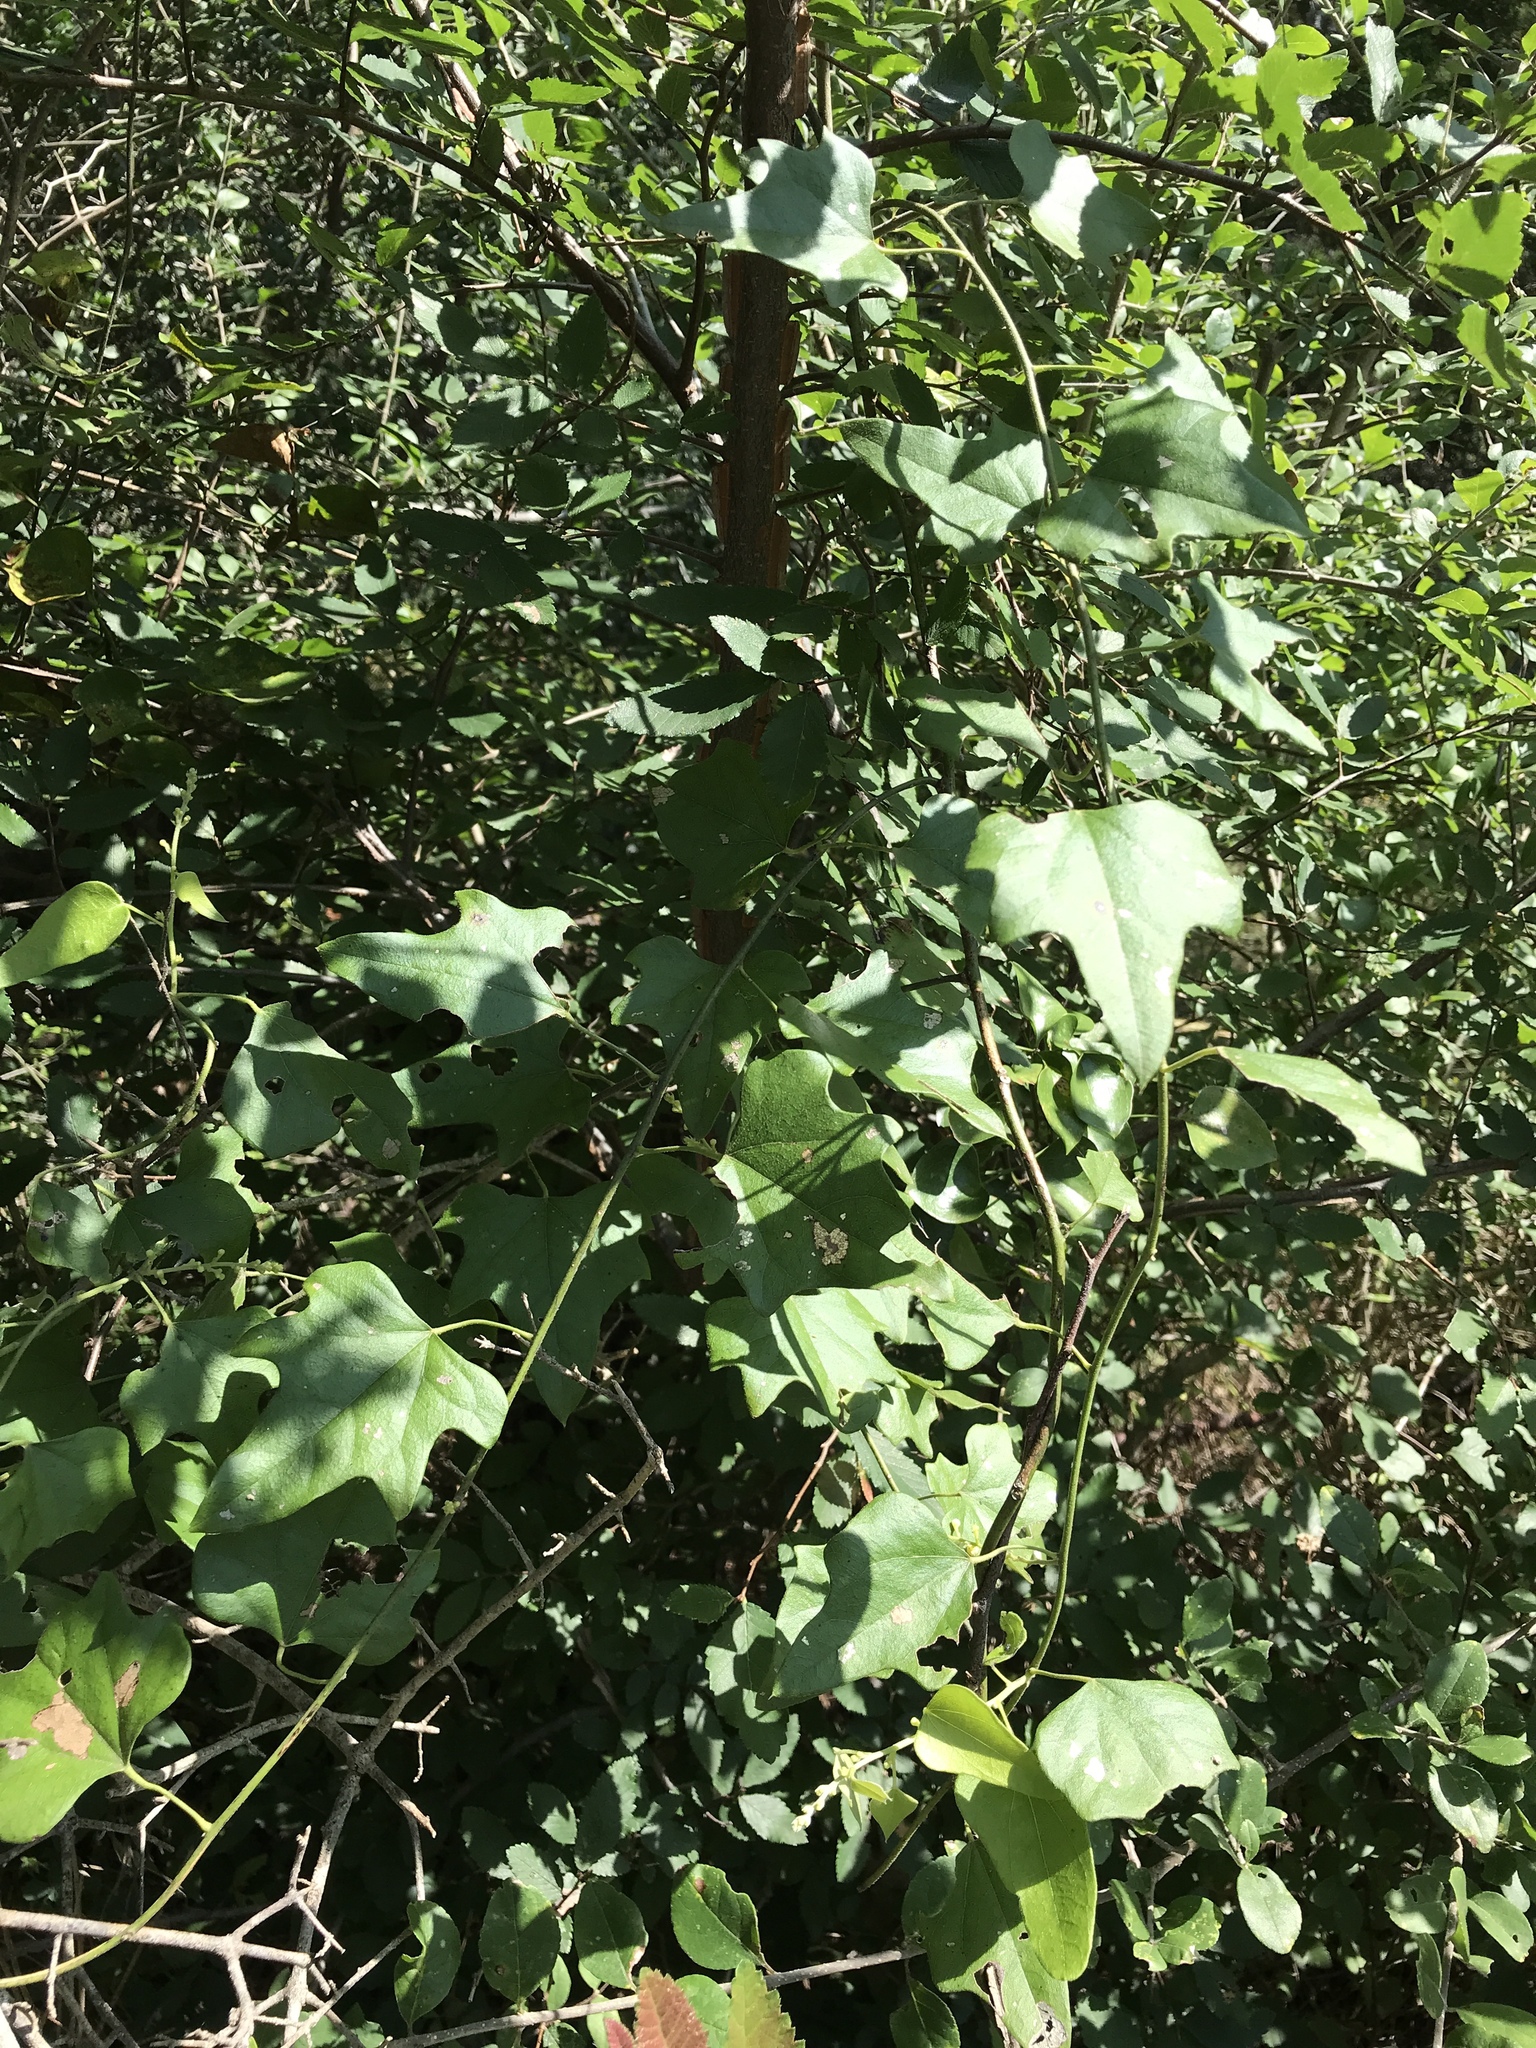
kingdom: Plantae
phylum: Tracheophyta
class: Magnoliopsida
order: Ranunculales
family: Menispermaceae
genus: Cocculus
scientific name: Cocculus carolinus
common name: Carolina moonseed
